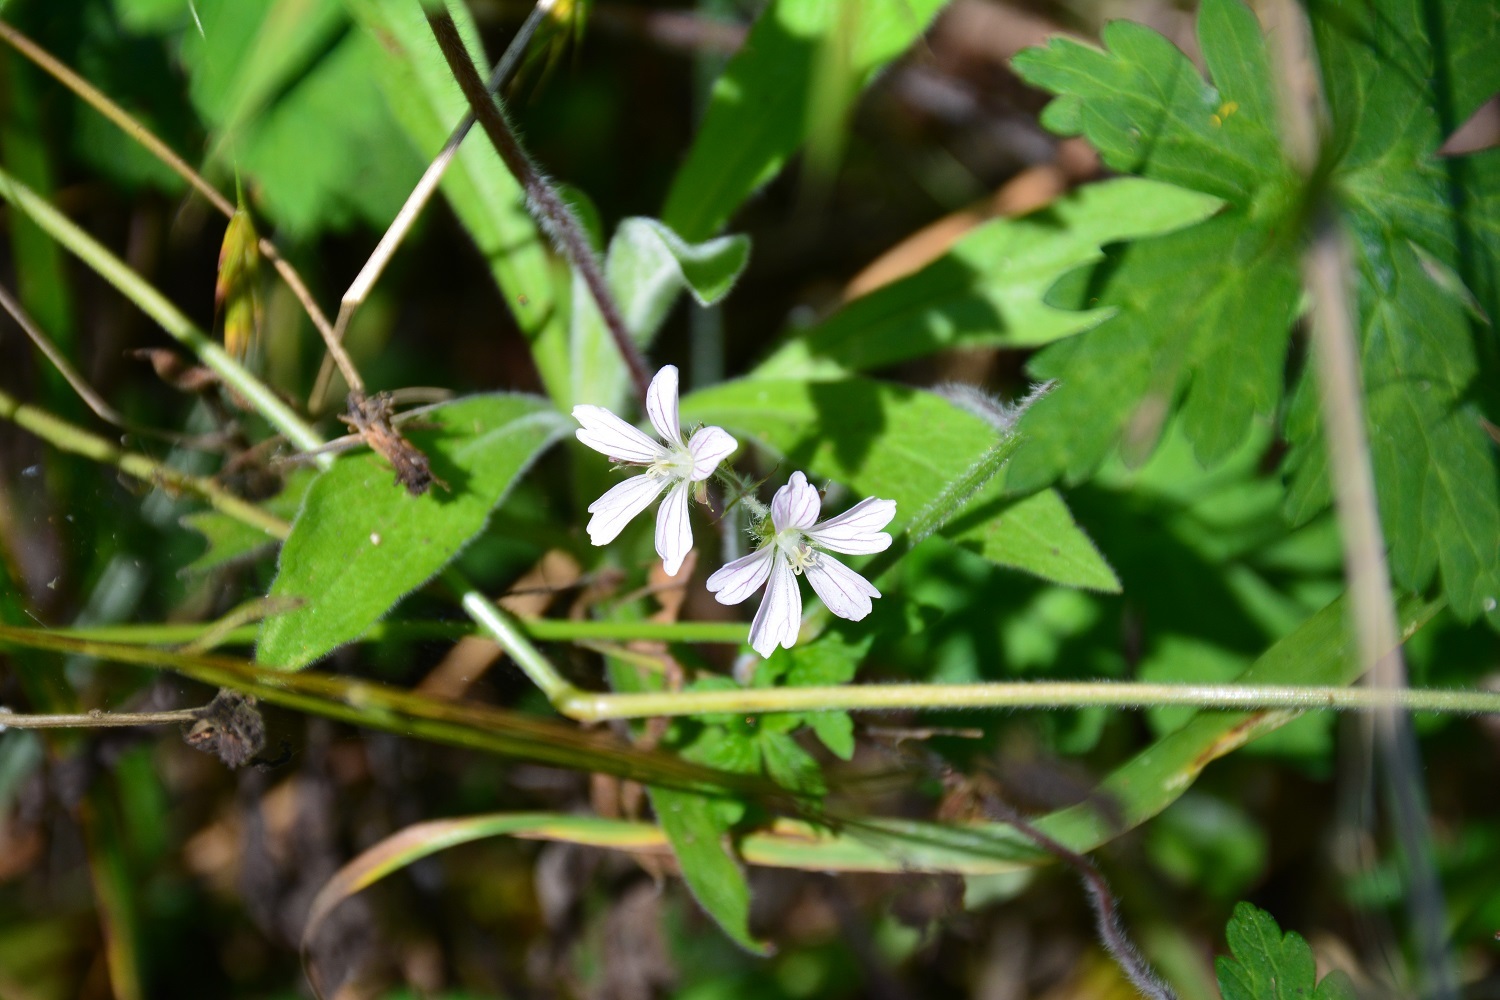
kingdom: Plantae
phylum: Tracheophyta
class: Magnoliopsida
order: Geraniales
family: Geraniaceae
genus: Geranium
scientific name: Geranium seemannii
